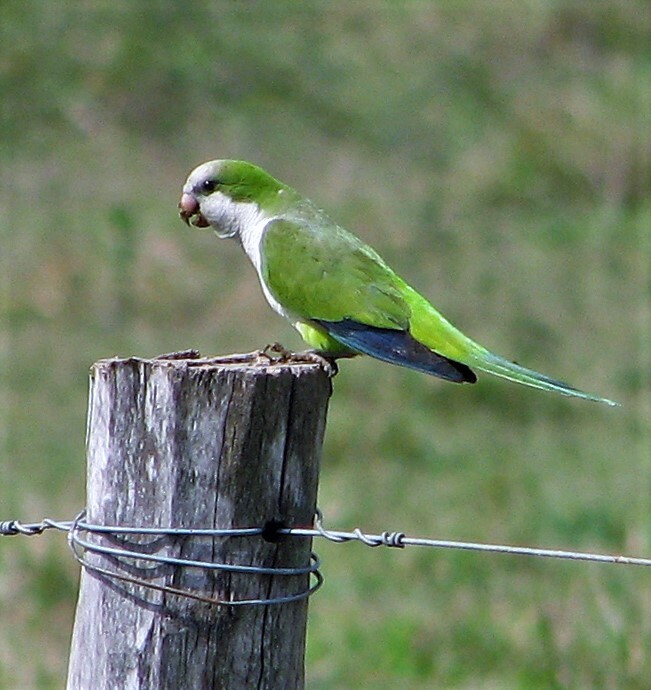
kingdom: Animalia
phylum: Chordata
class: Aves
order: Psittaciformes
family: Psittacidae
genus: Myiopsitta
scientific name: Myiopsitta monachus
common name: Monk parakeet
